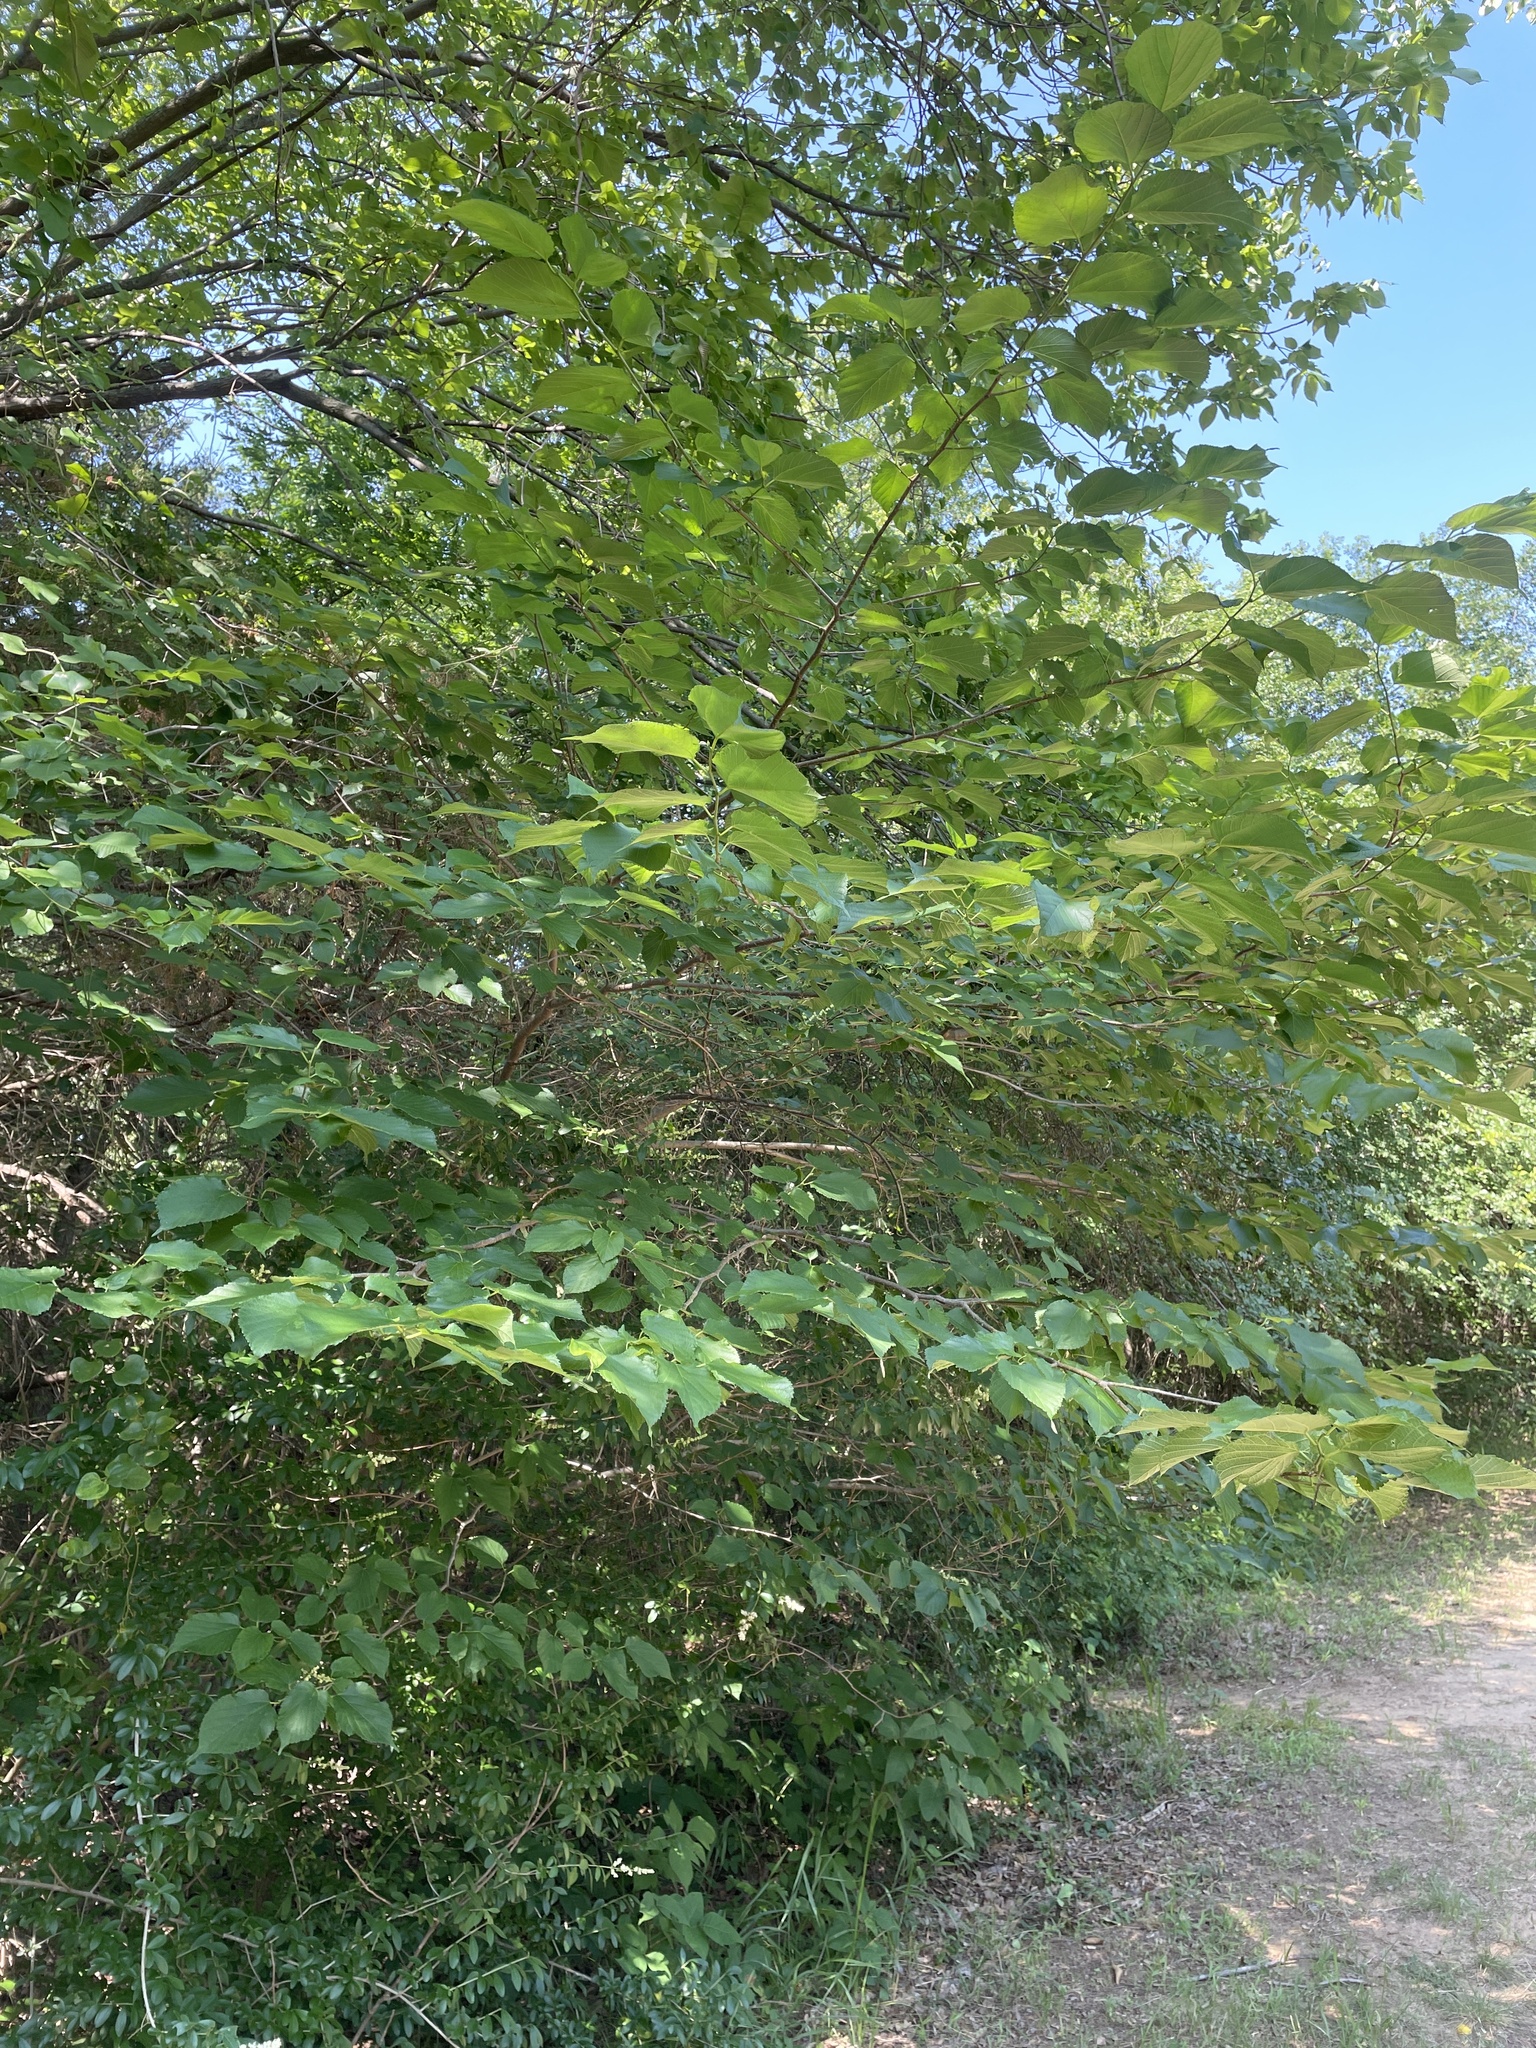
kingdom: Plantae
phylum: Tracheophyta
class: Magnoliopsida
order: Rosales
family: Moraceae
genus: Morus
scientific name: Morus rubra
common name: Red mulberry
